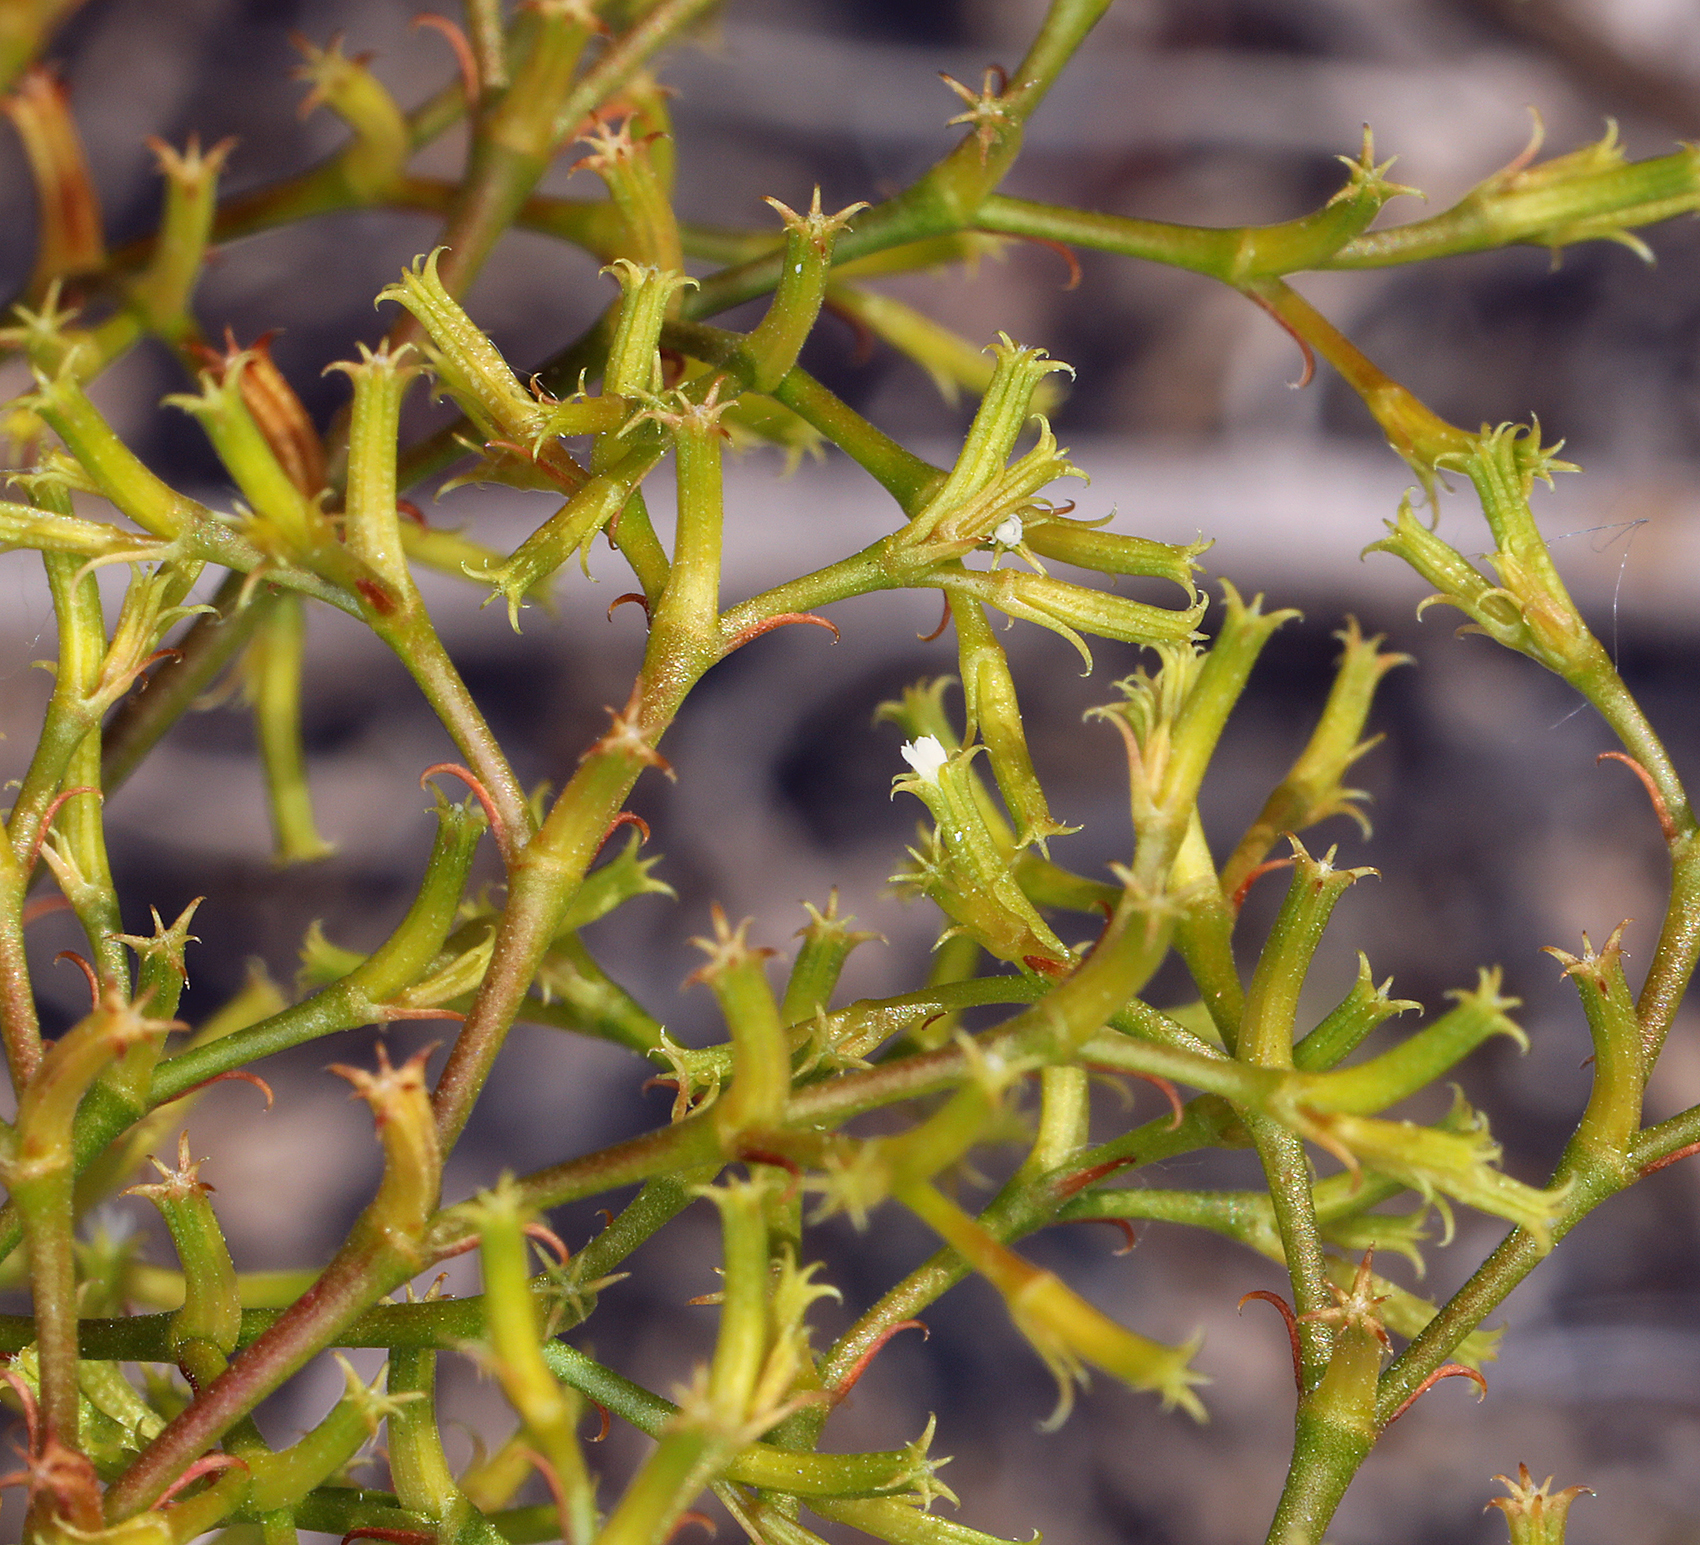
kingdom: Plantae
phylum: Tracheophyta
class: Magnoliopsida
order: Caryophyllales
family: Polygonaceae
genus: Chorizanthe
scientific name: Chorizanthe brevicornu
